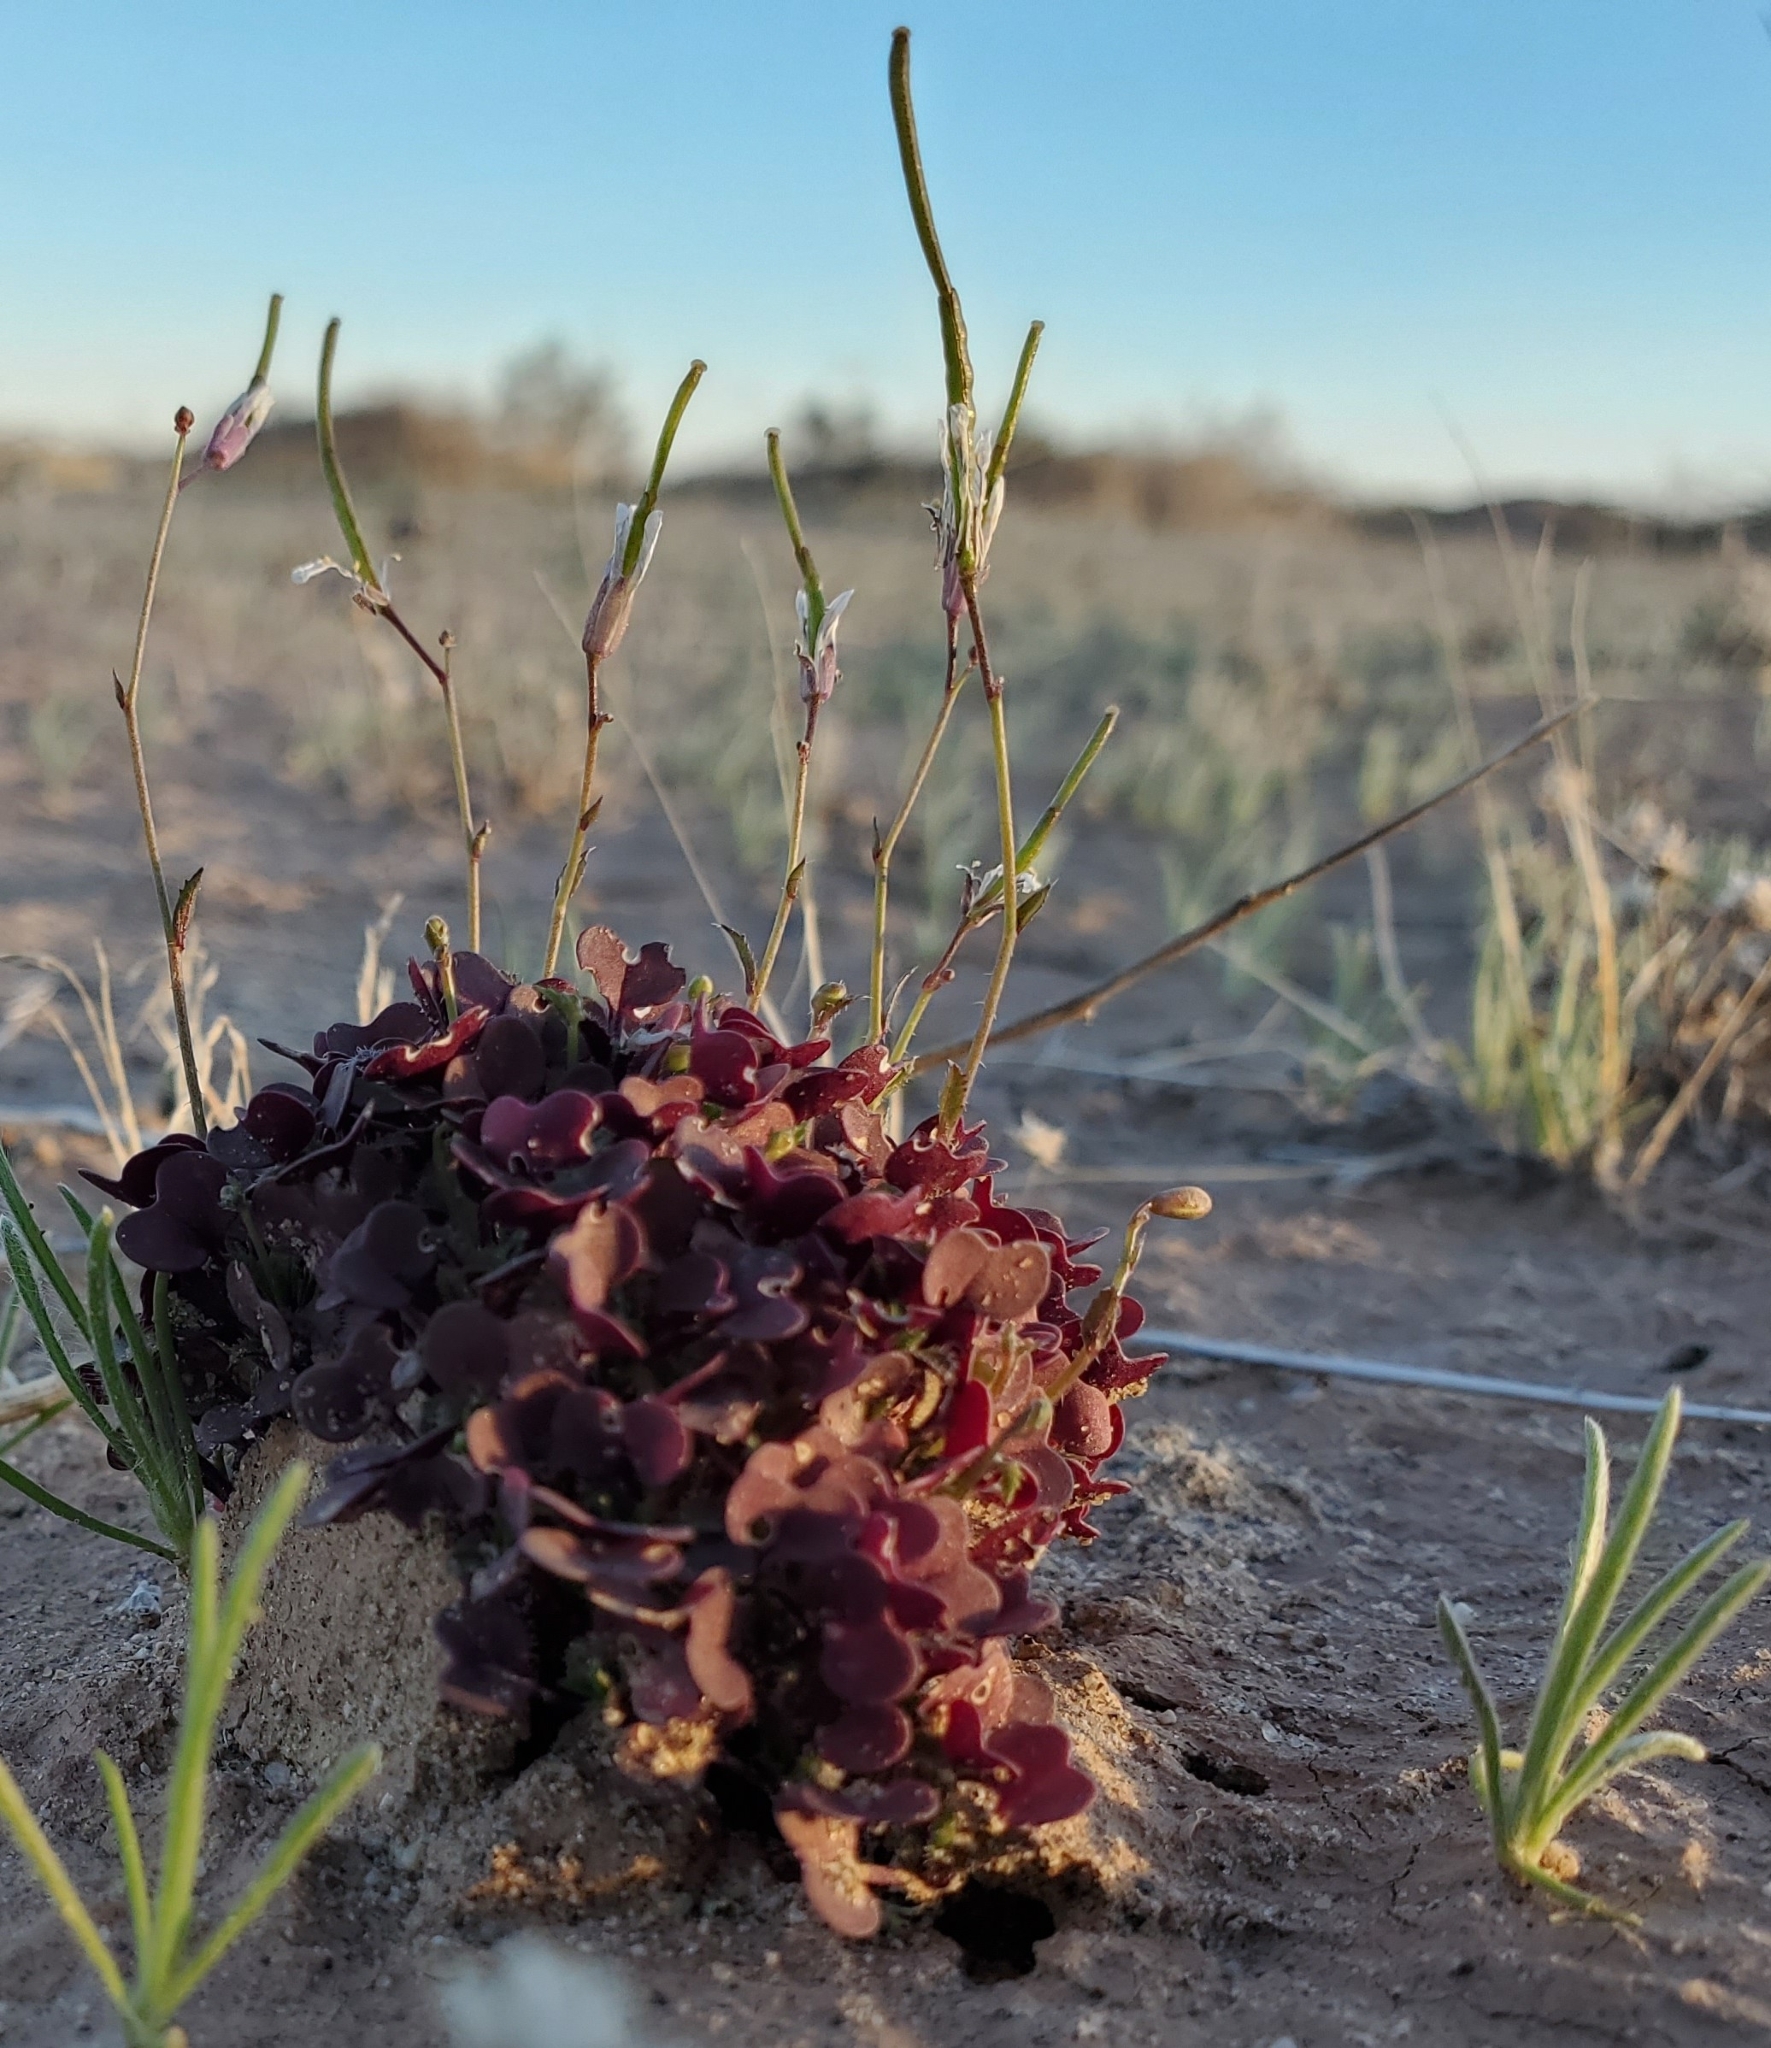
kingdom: Plantae
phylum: Tracheophyta
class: Magnoliopsida
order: Brassicales
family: Brassicaceae
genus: Brassica
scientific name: Brassica tournefortii
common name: Pale cabbage
